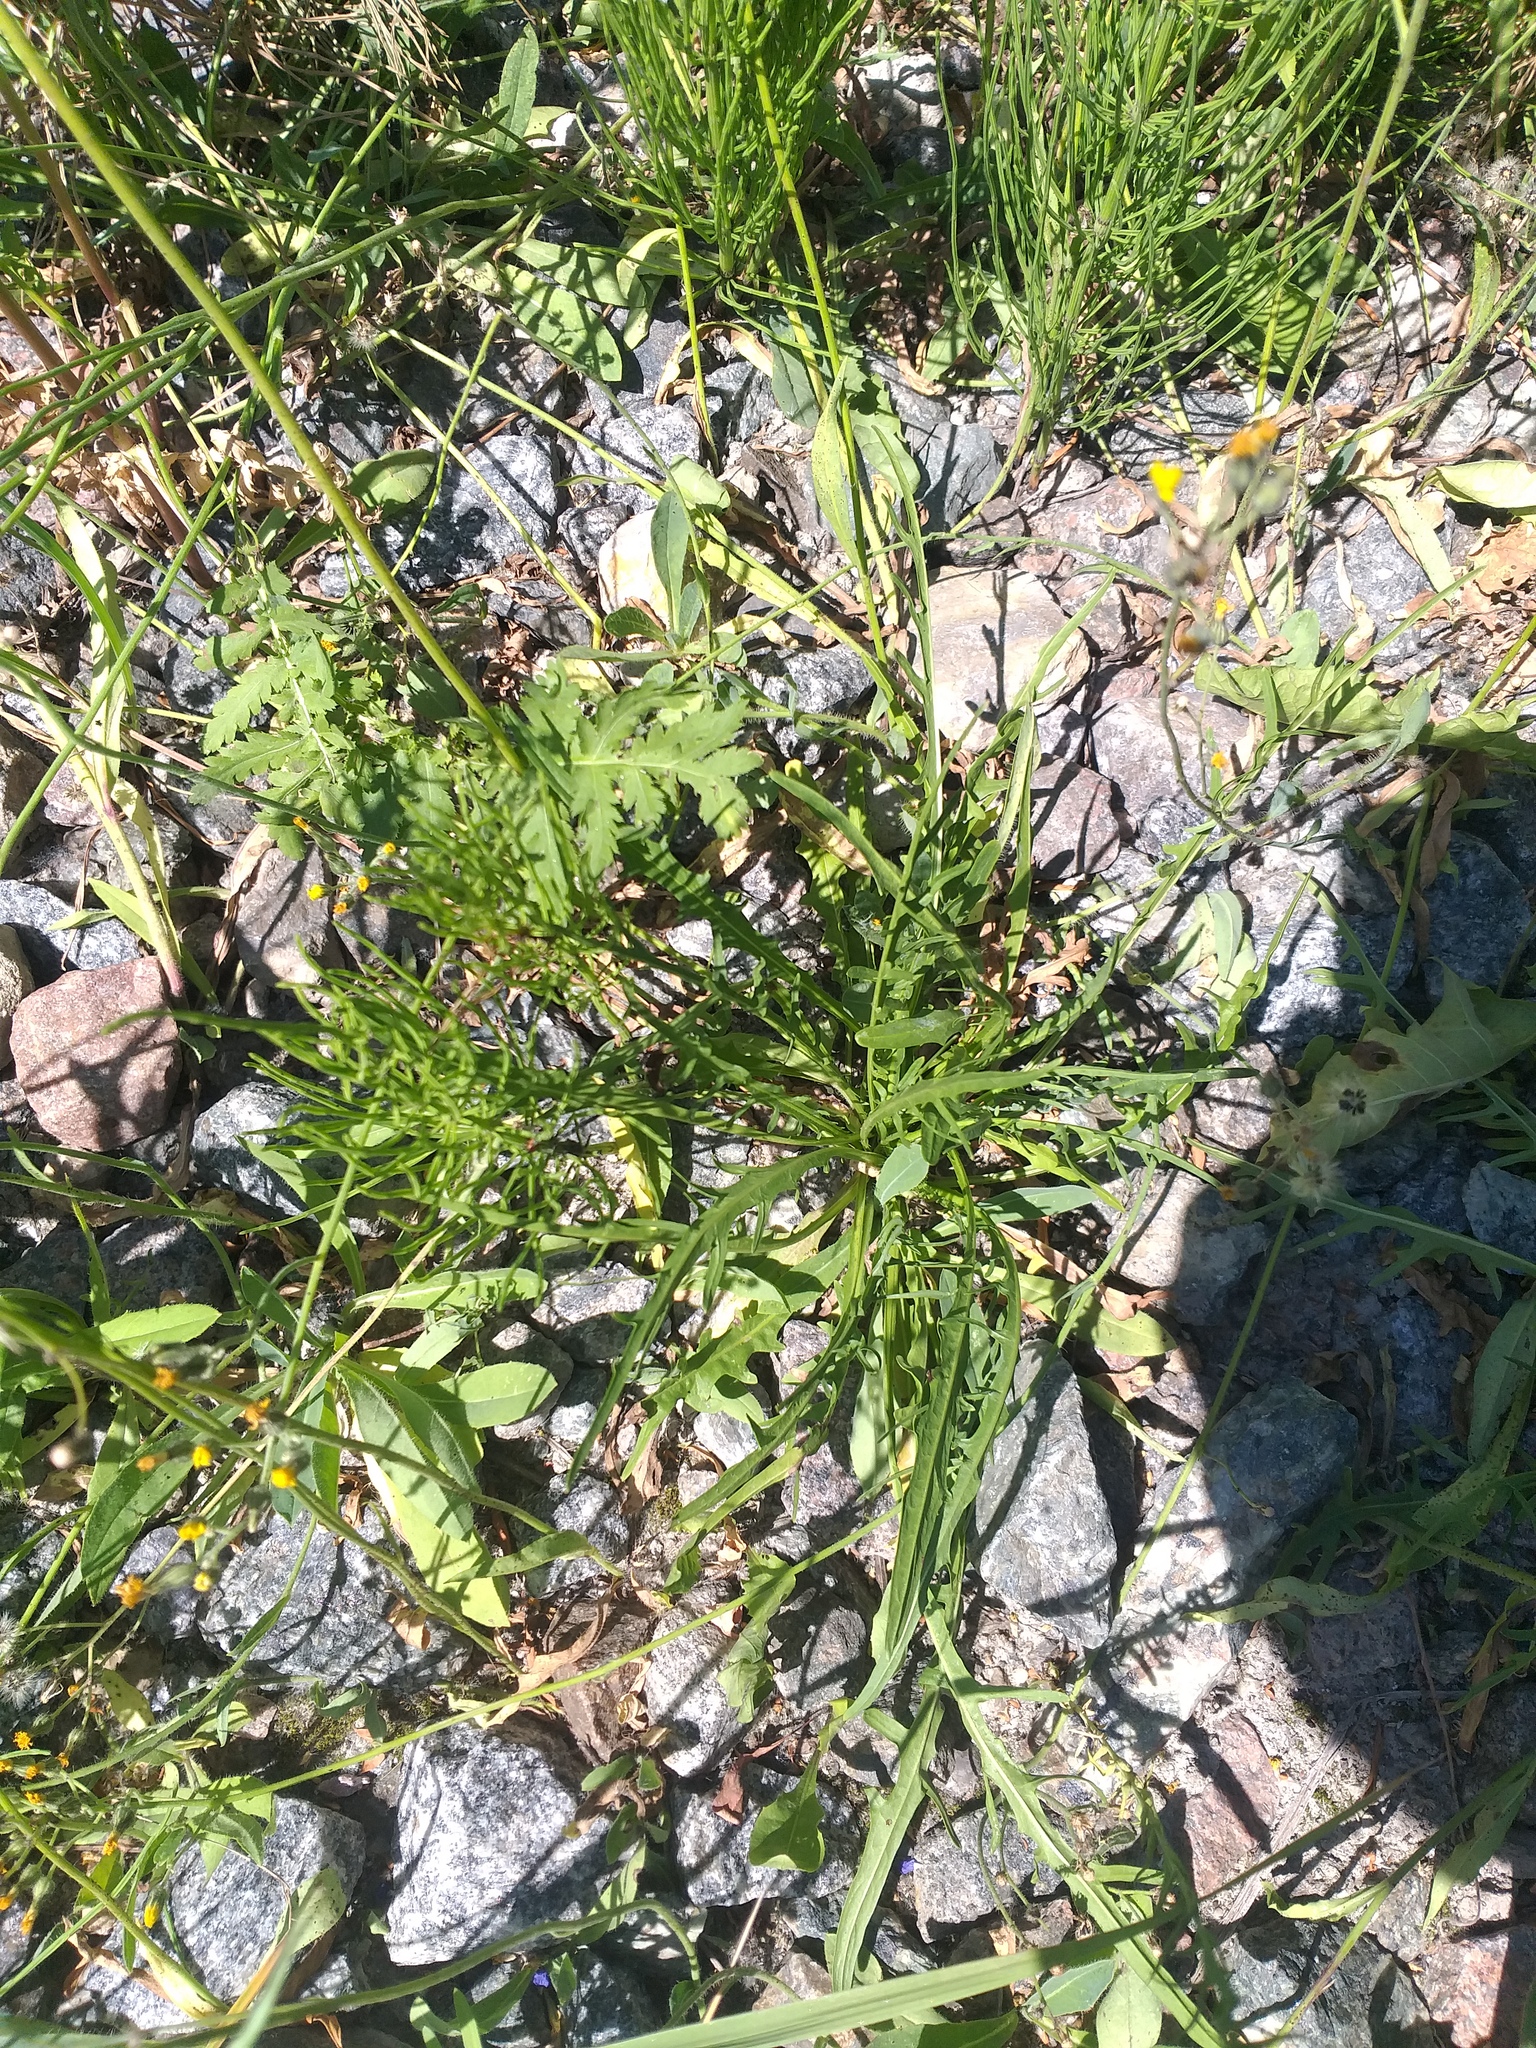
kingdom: Plantae
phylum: Tracheophyta
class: Magnoliopsida
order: Asterales
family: Asteraceae
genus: Scorzoneroides
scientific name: Scorzoneroides autumnalis
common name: Autumn hawkbit
